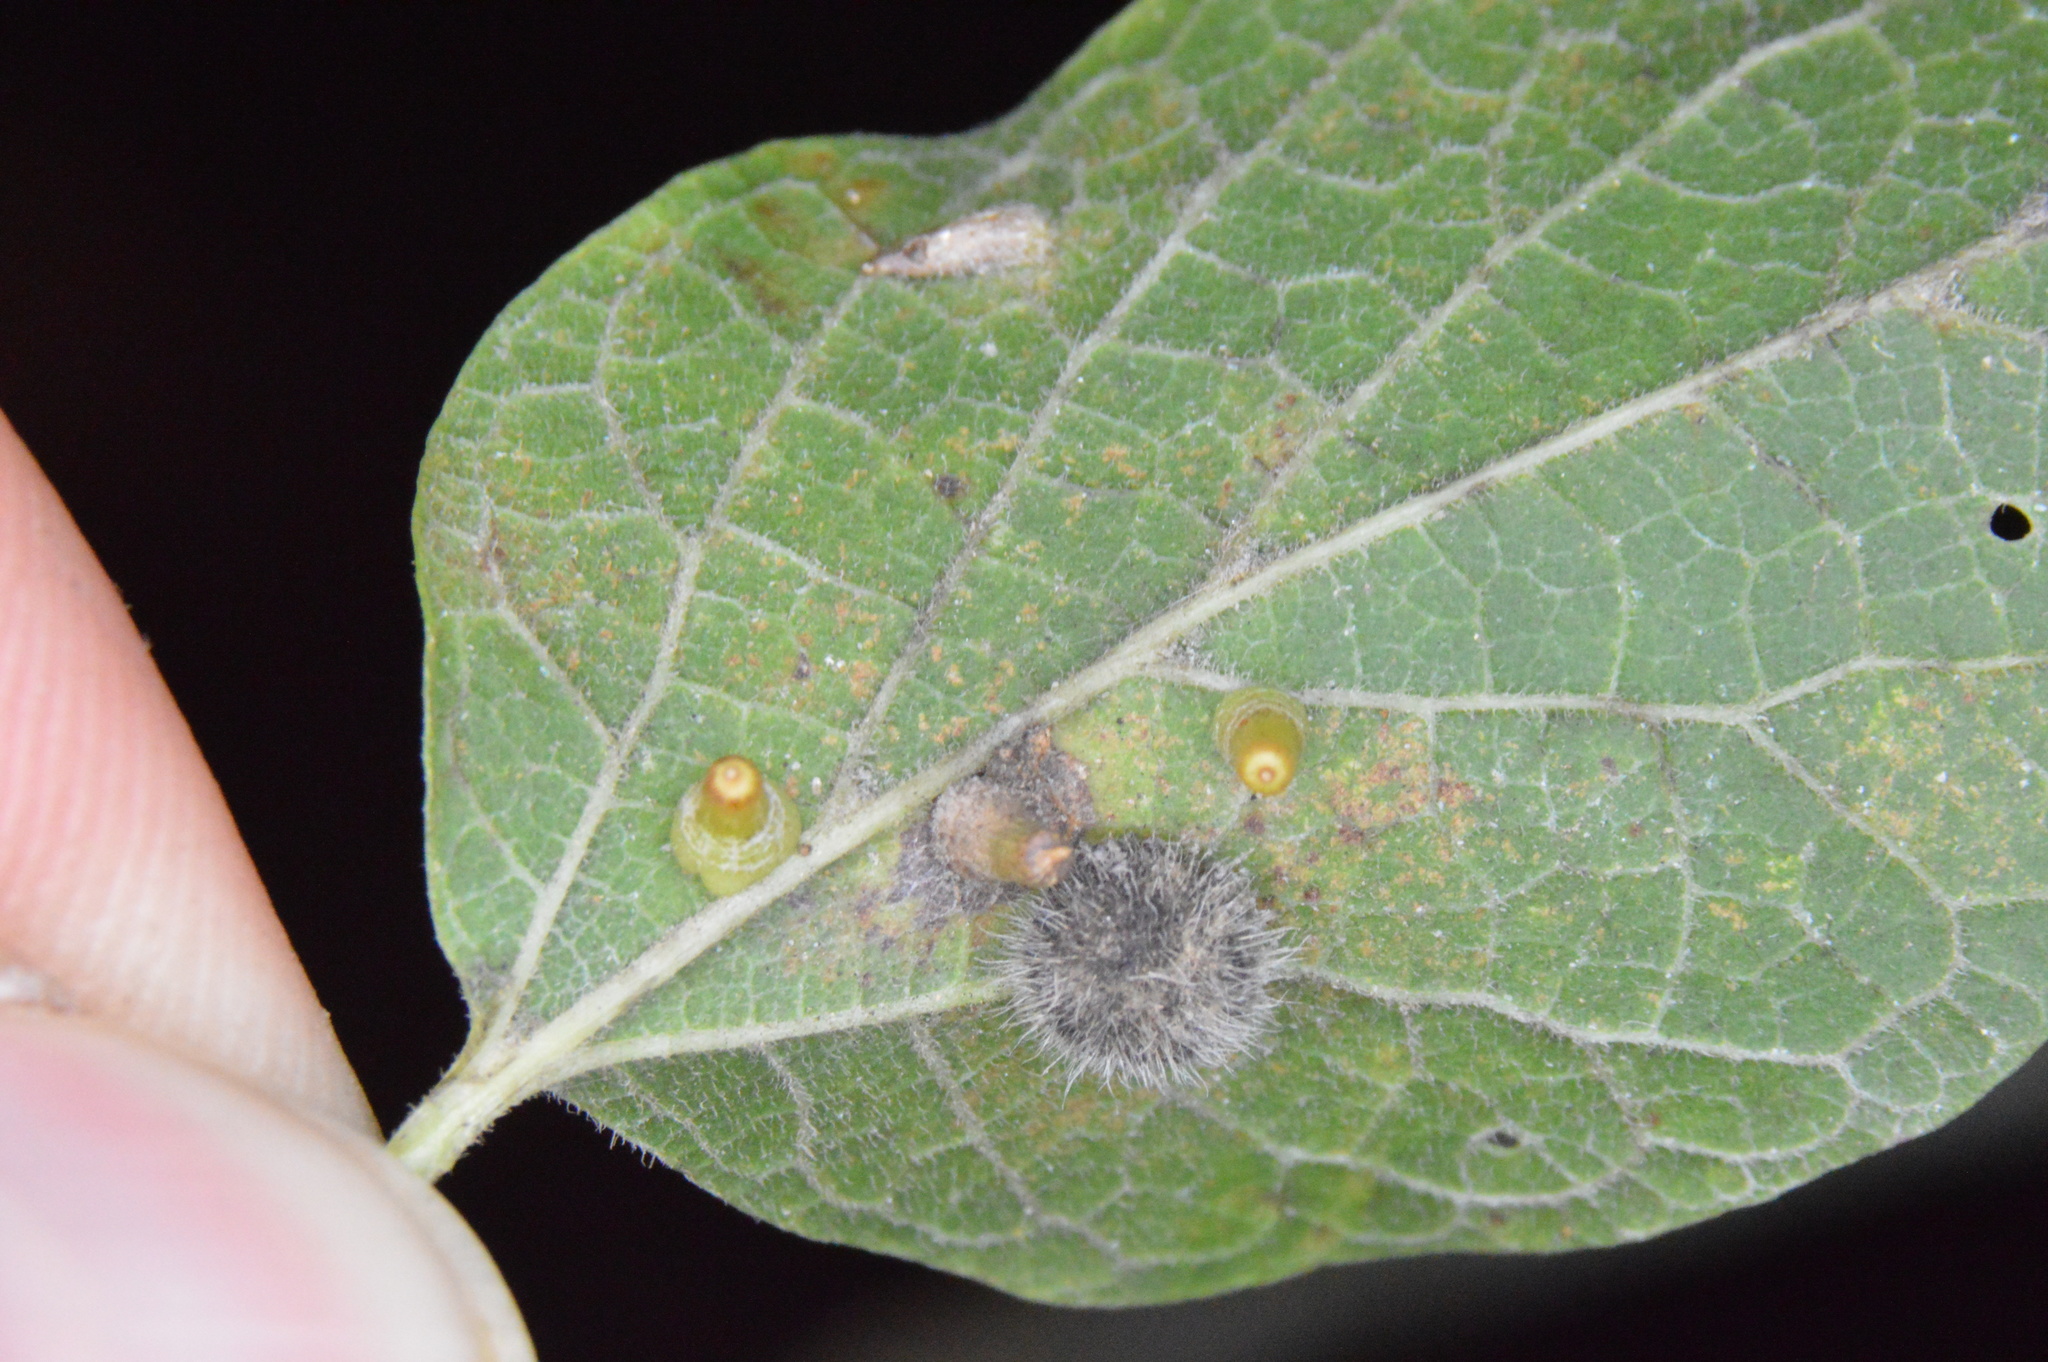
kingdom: Animalia
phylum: Arthropoda
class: Insecta
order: Diptera
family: Cecidomyiidae
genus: Celticecis
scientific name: Celticecis aciculata
